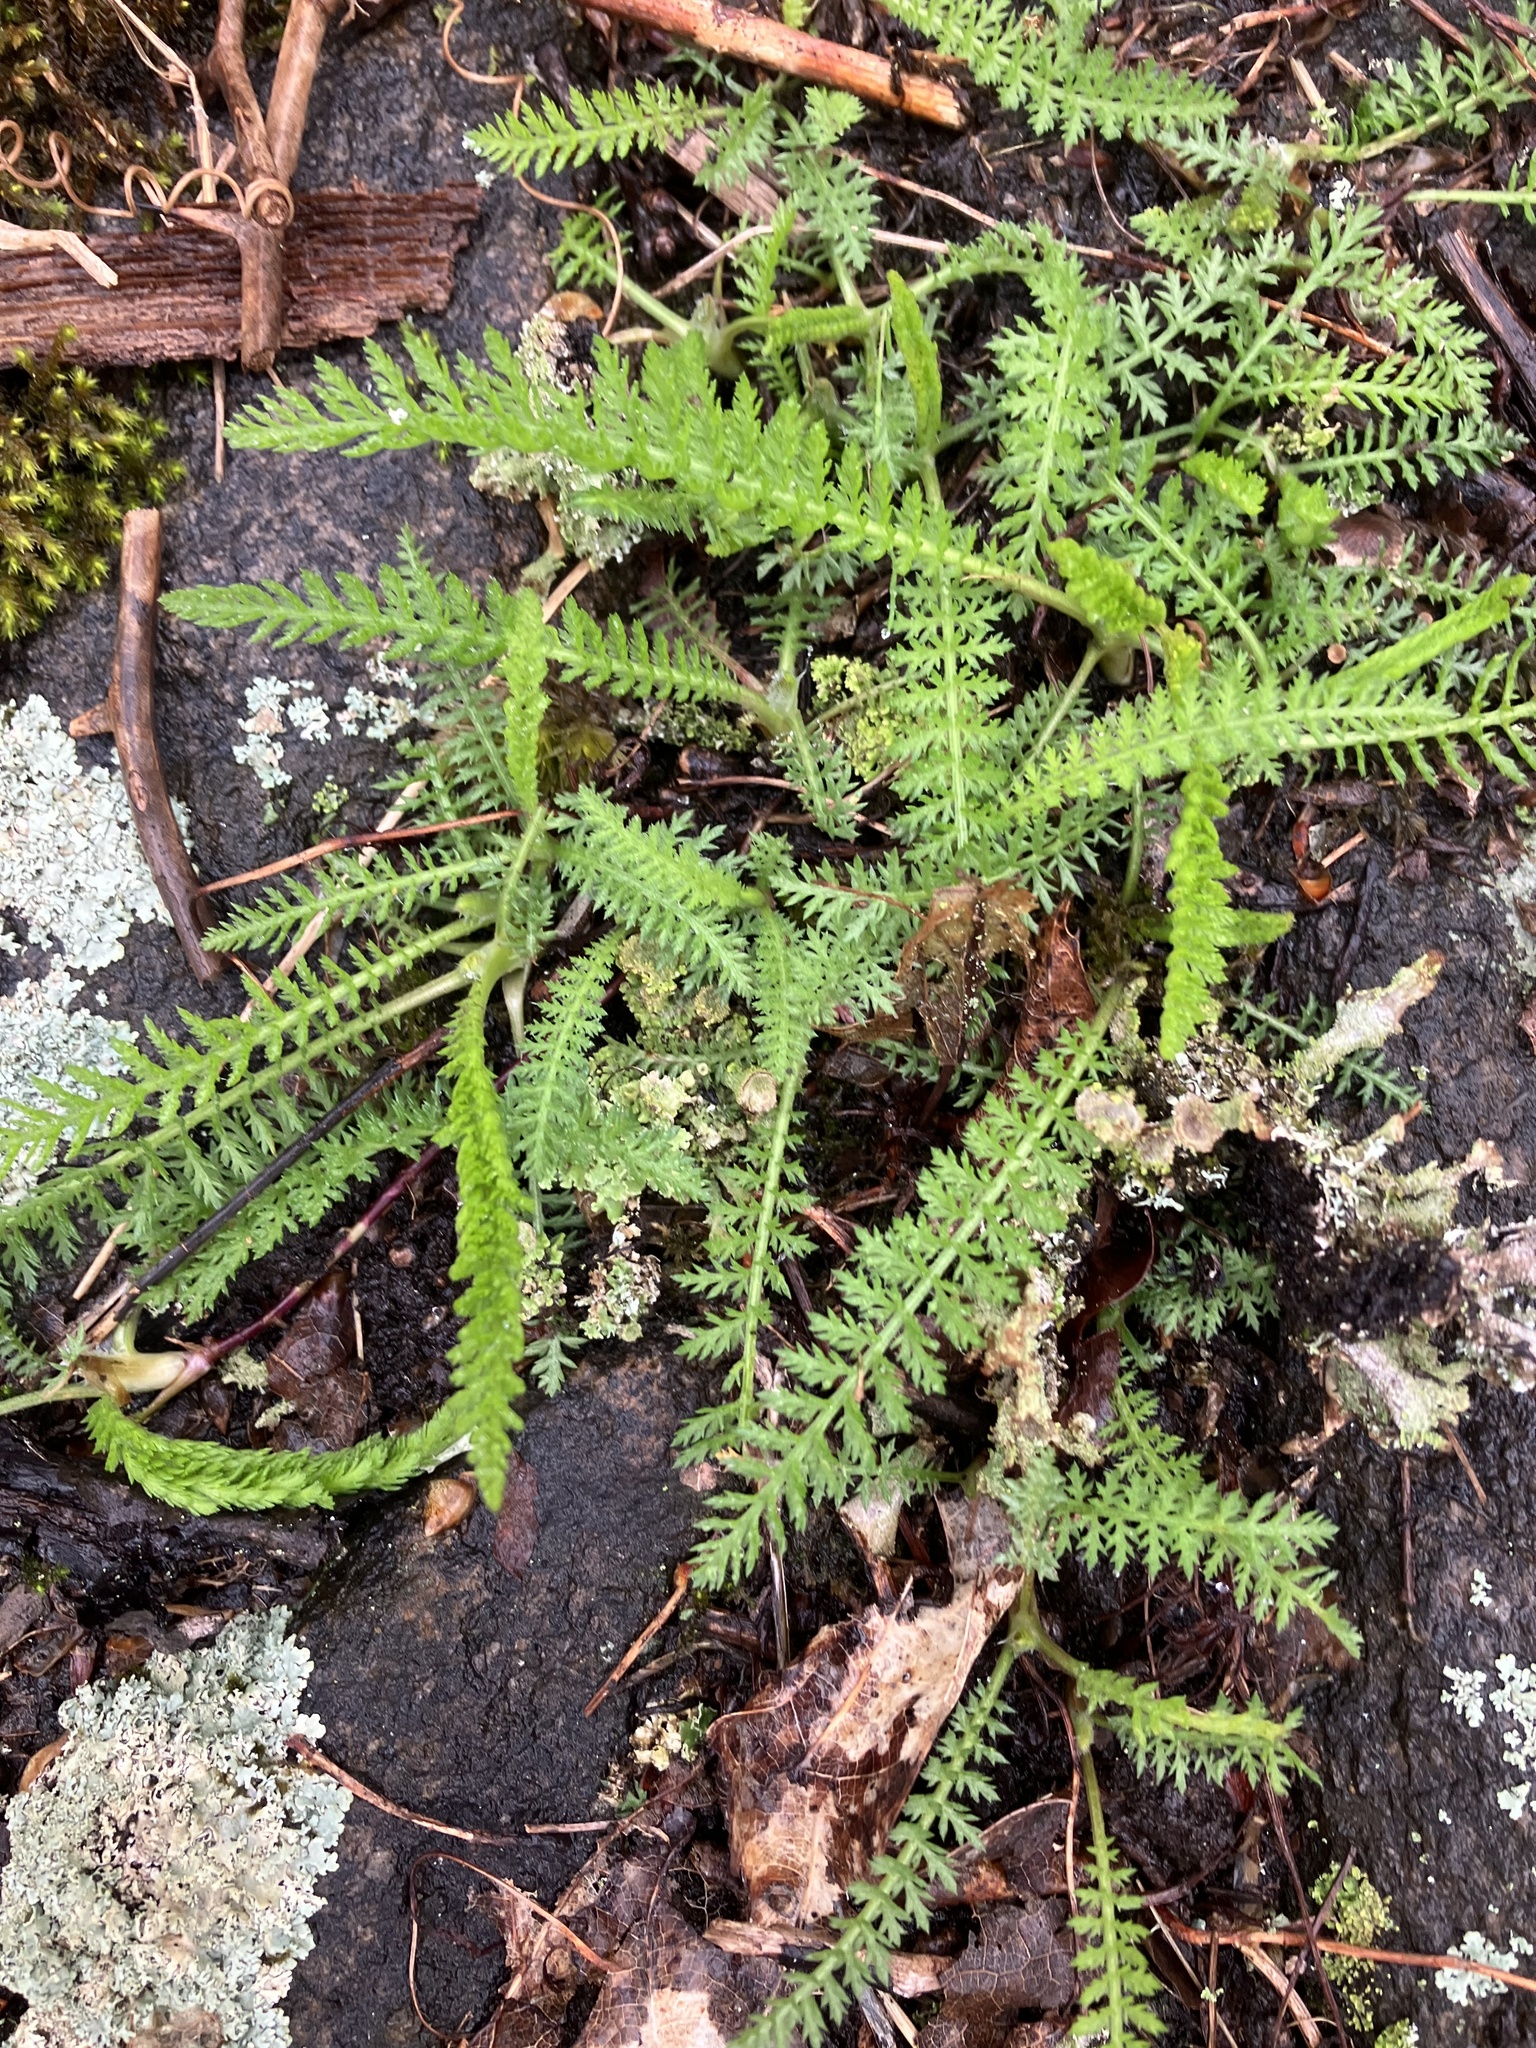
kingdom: Plantae
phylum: Tracheophyta
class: Magnoliopsida
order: Asterales
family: Asteraceae
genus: Achillea
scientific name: Achillea millefolium
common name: Yarrow
